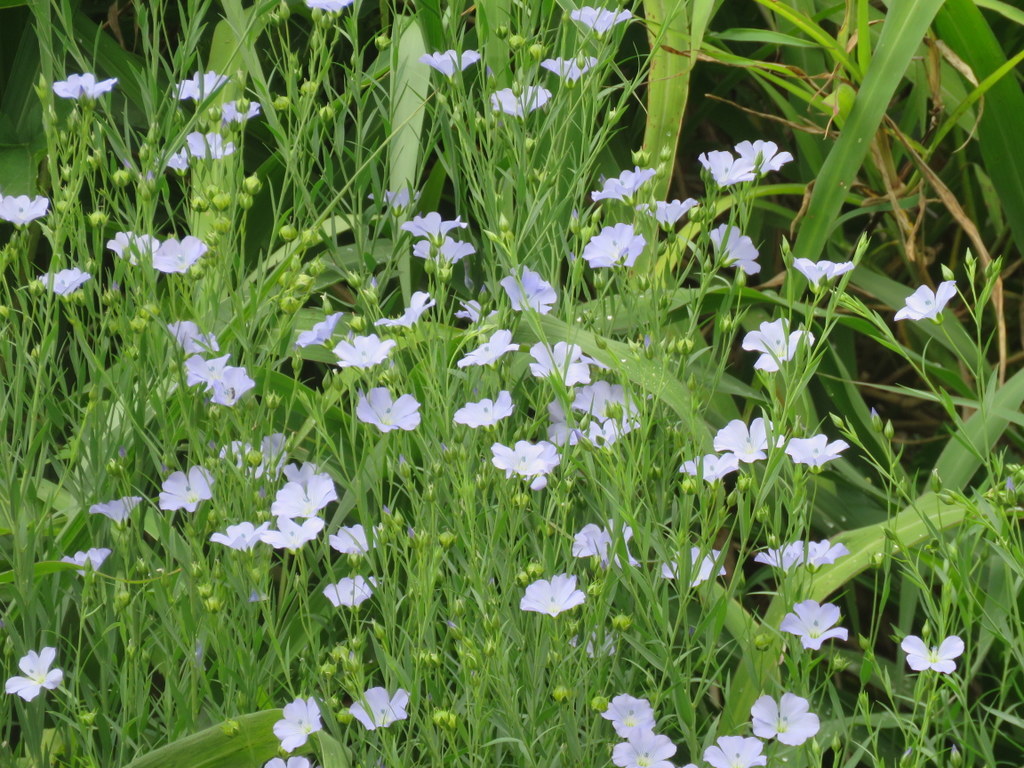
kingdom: Plantae
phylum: Tracheophyta
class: Magnoliopsida
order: Malpighiales
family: Linaceae
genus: Linum
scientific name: Linum usitatissimum
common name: Flax
